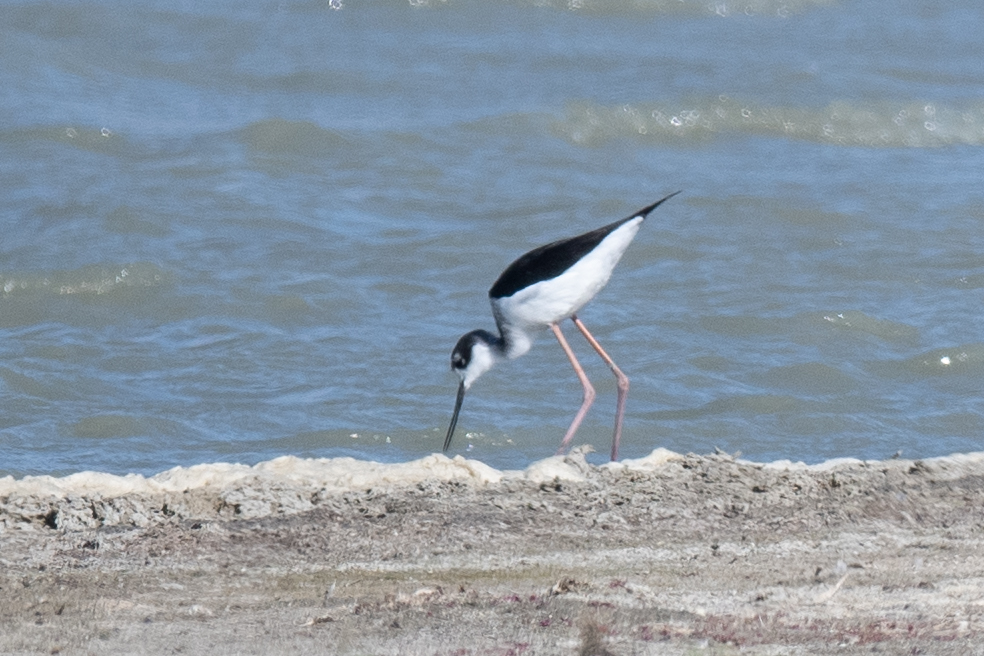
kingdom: Animalia
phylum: Chordata
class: Aves
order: Charadriiformes
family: Recurvirostridae
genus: Himantopus
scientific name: Himantopus mexicanus
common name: Black-necked stilt
